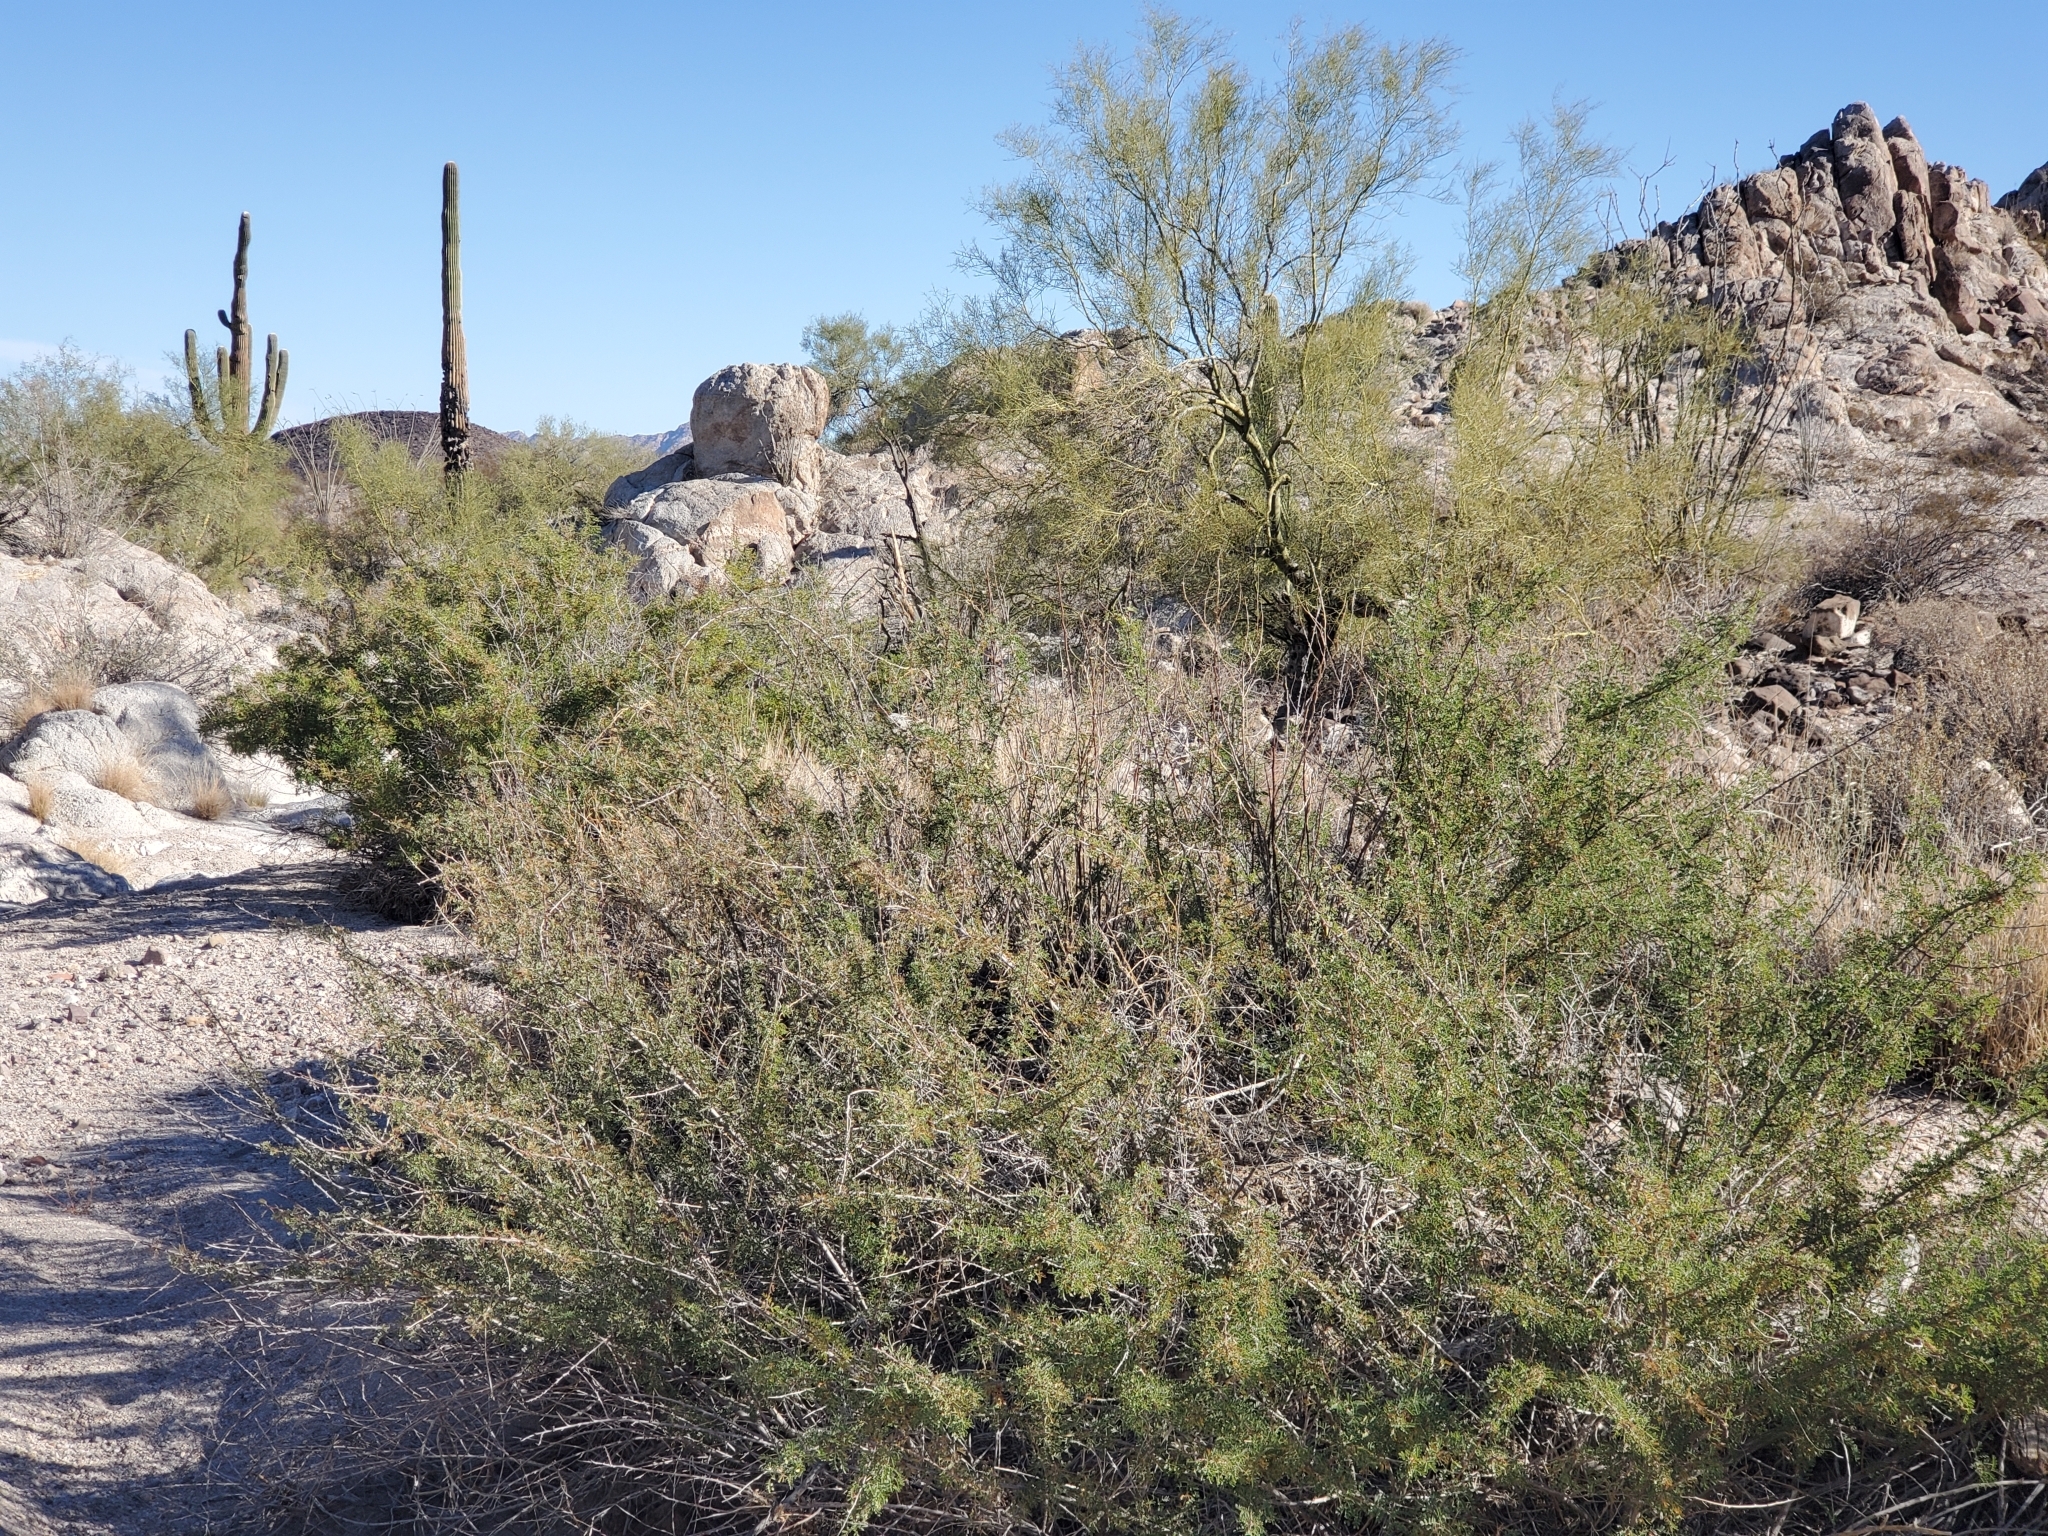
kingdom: Plantae
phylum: Tracheophyta
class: Magnoliopsida
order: Fabales
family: Fabaceae
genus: Senegalia
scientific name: Senegalia greggii
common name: Texas-mimosa
